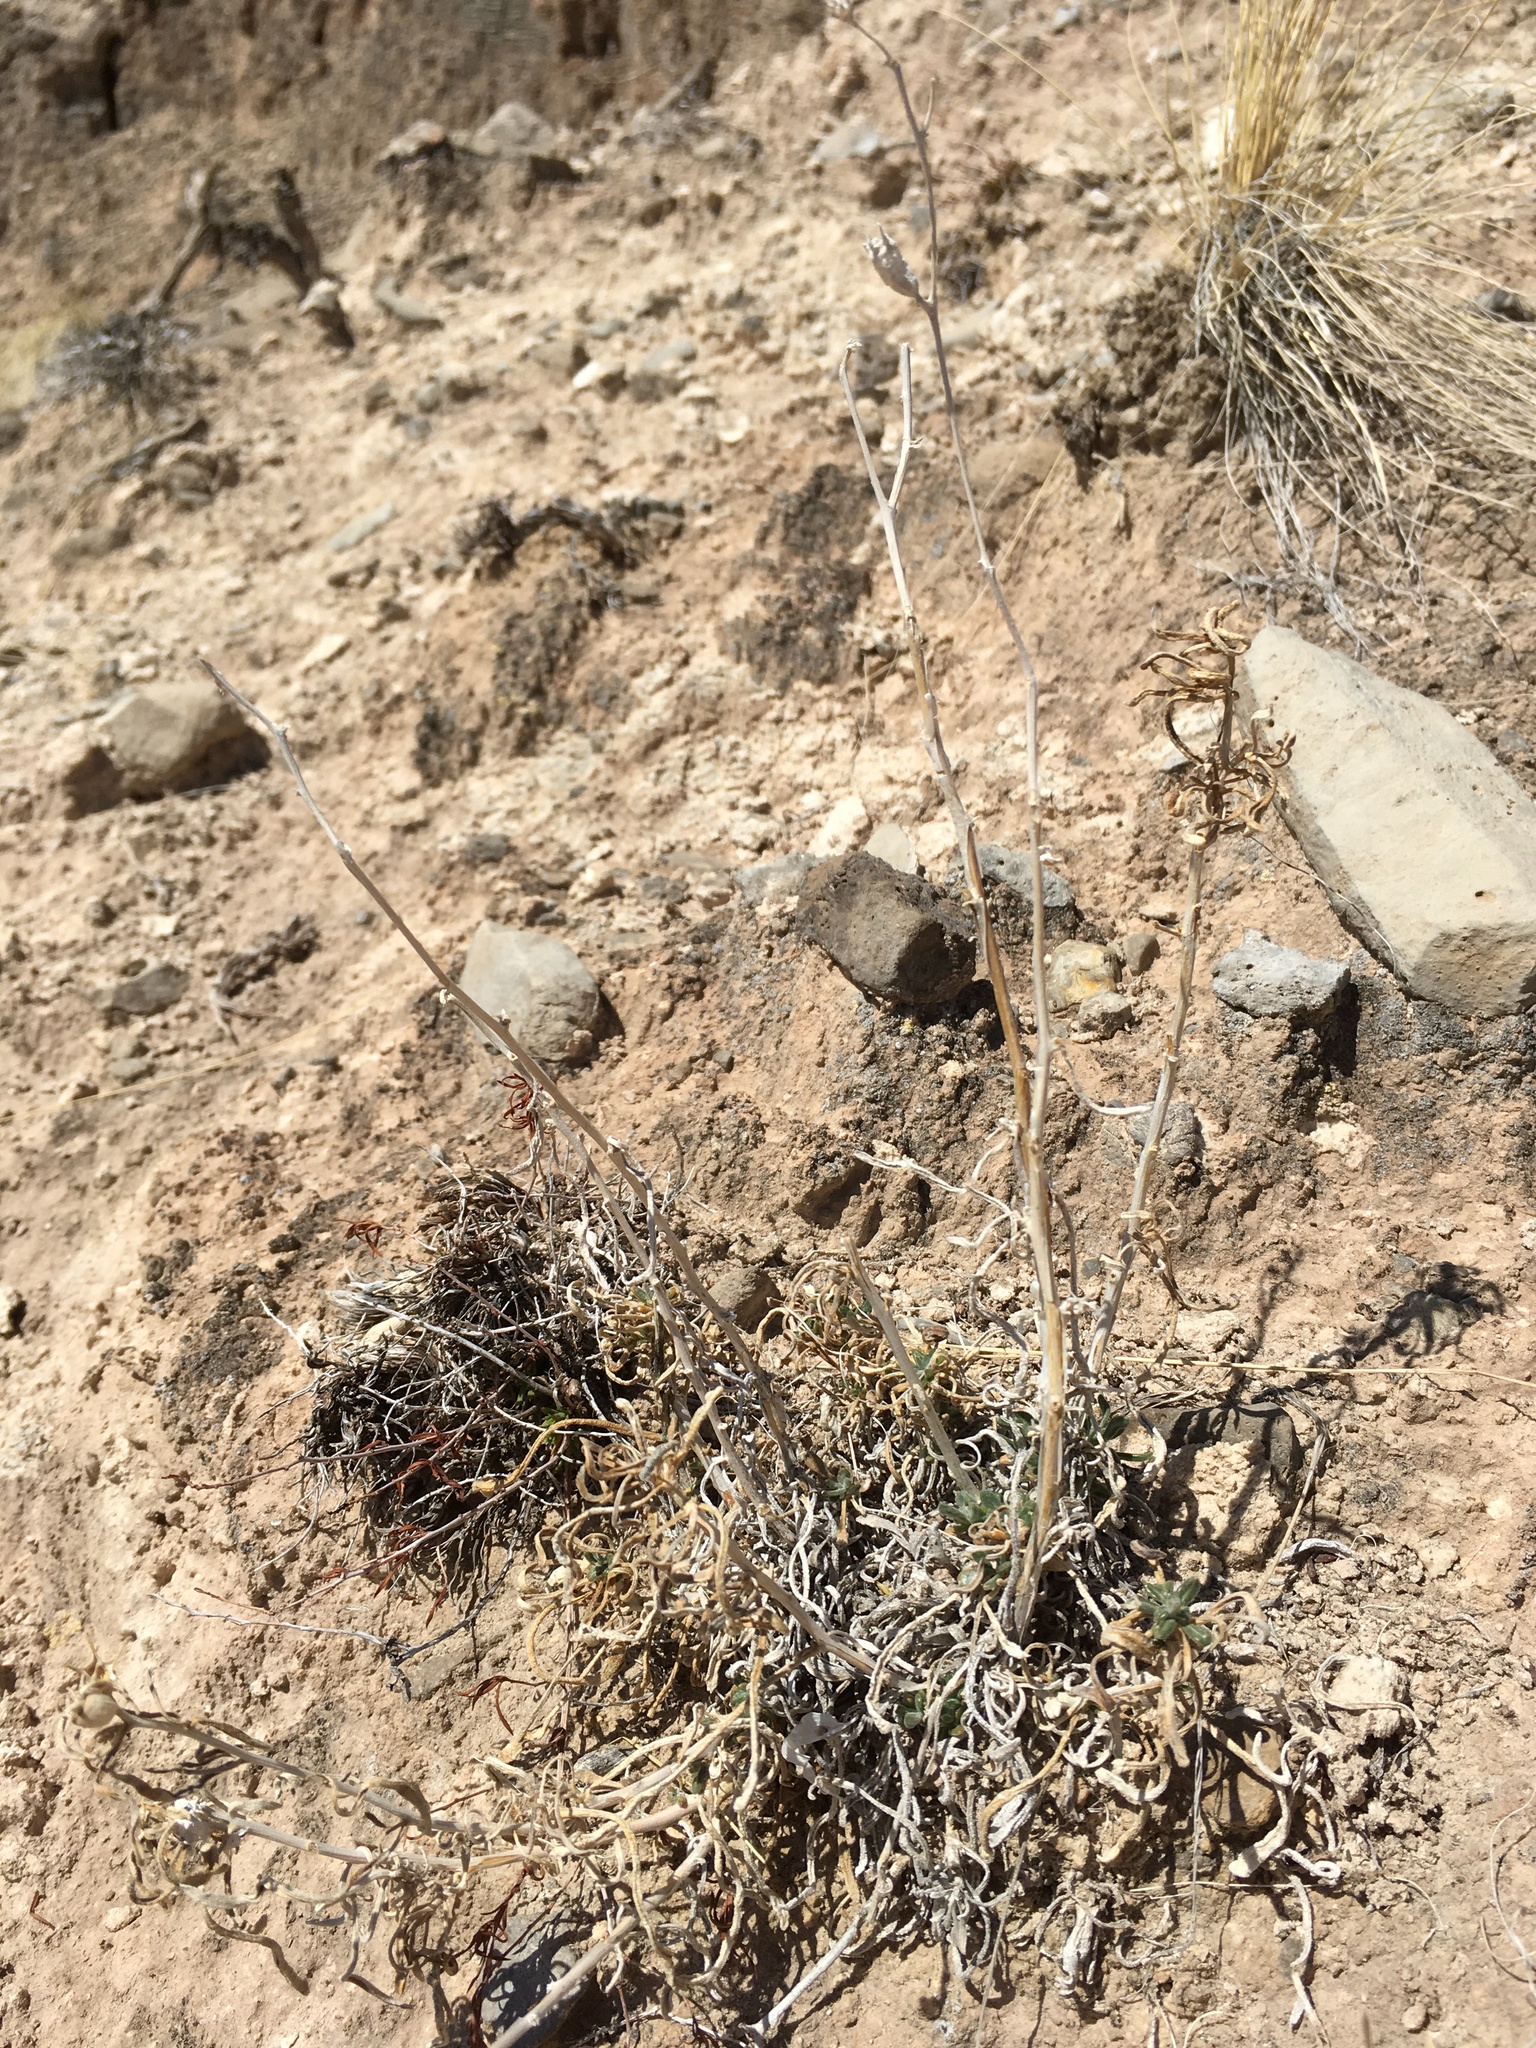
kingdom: Plantae
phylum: Tracheophyta
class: Magnoliopsida
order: Cornales
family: Loasaceae
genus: Mentzelia
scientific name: Mentzelia todiltoensis
